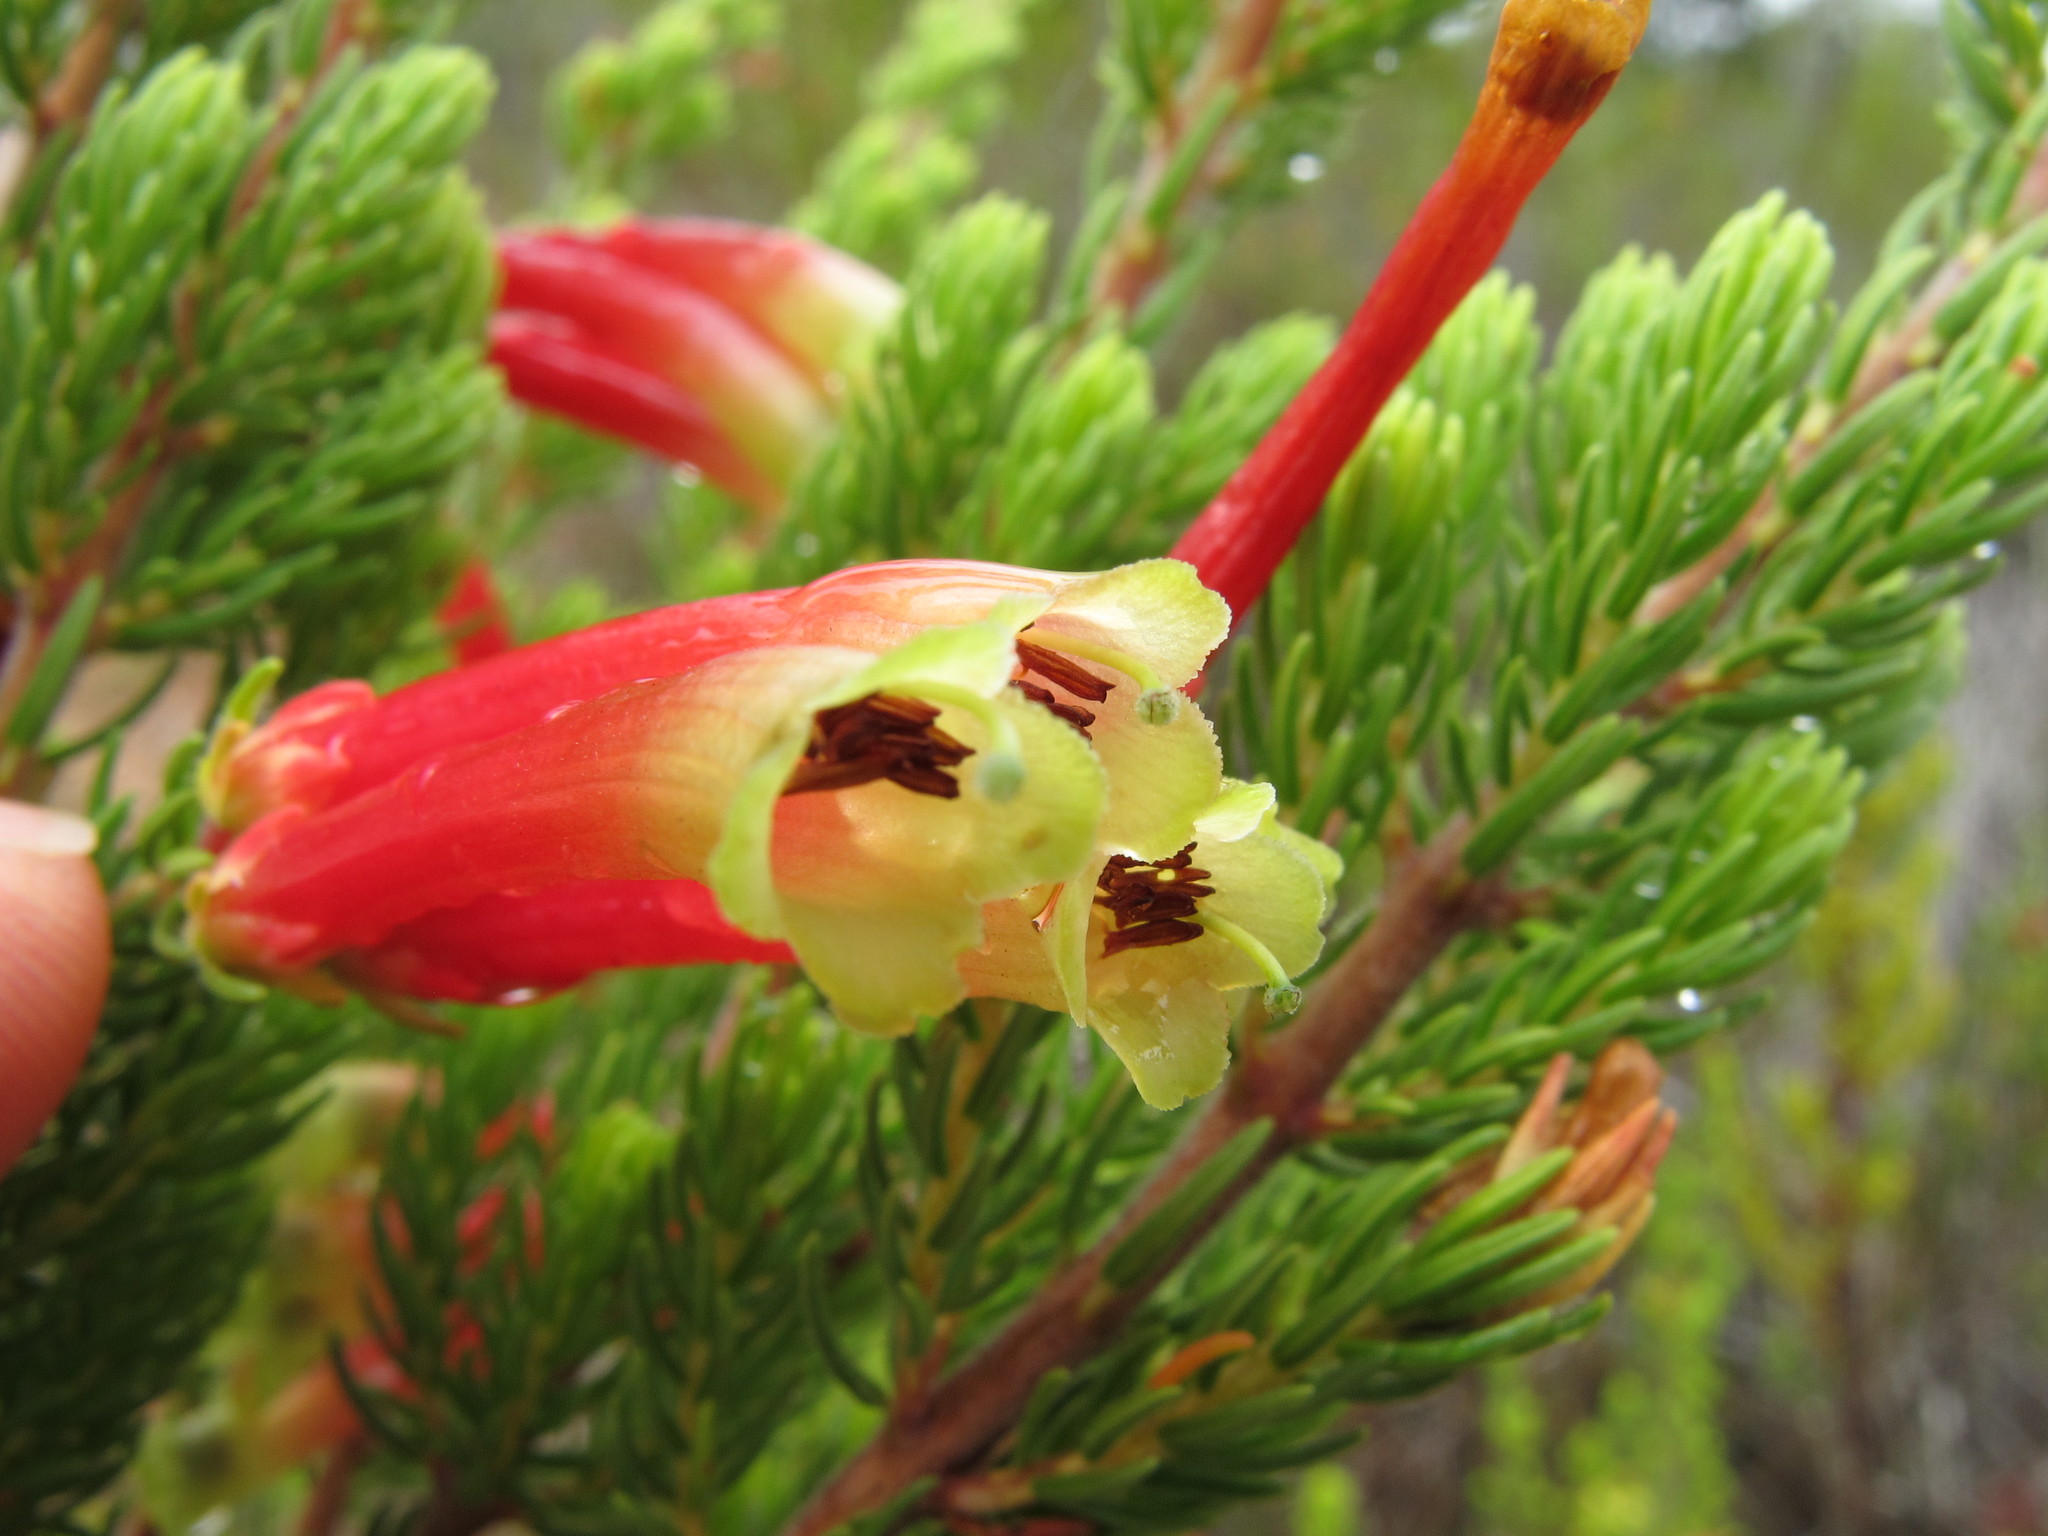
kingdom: Plantae
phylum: Tracheophyta
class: Magnoliopsida
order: Ericales
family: Ericaceae
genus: Erica
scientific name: Erica unicolor
